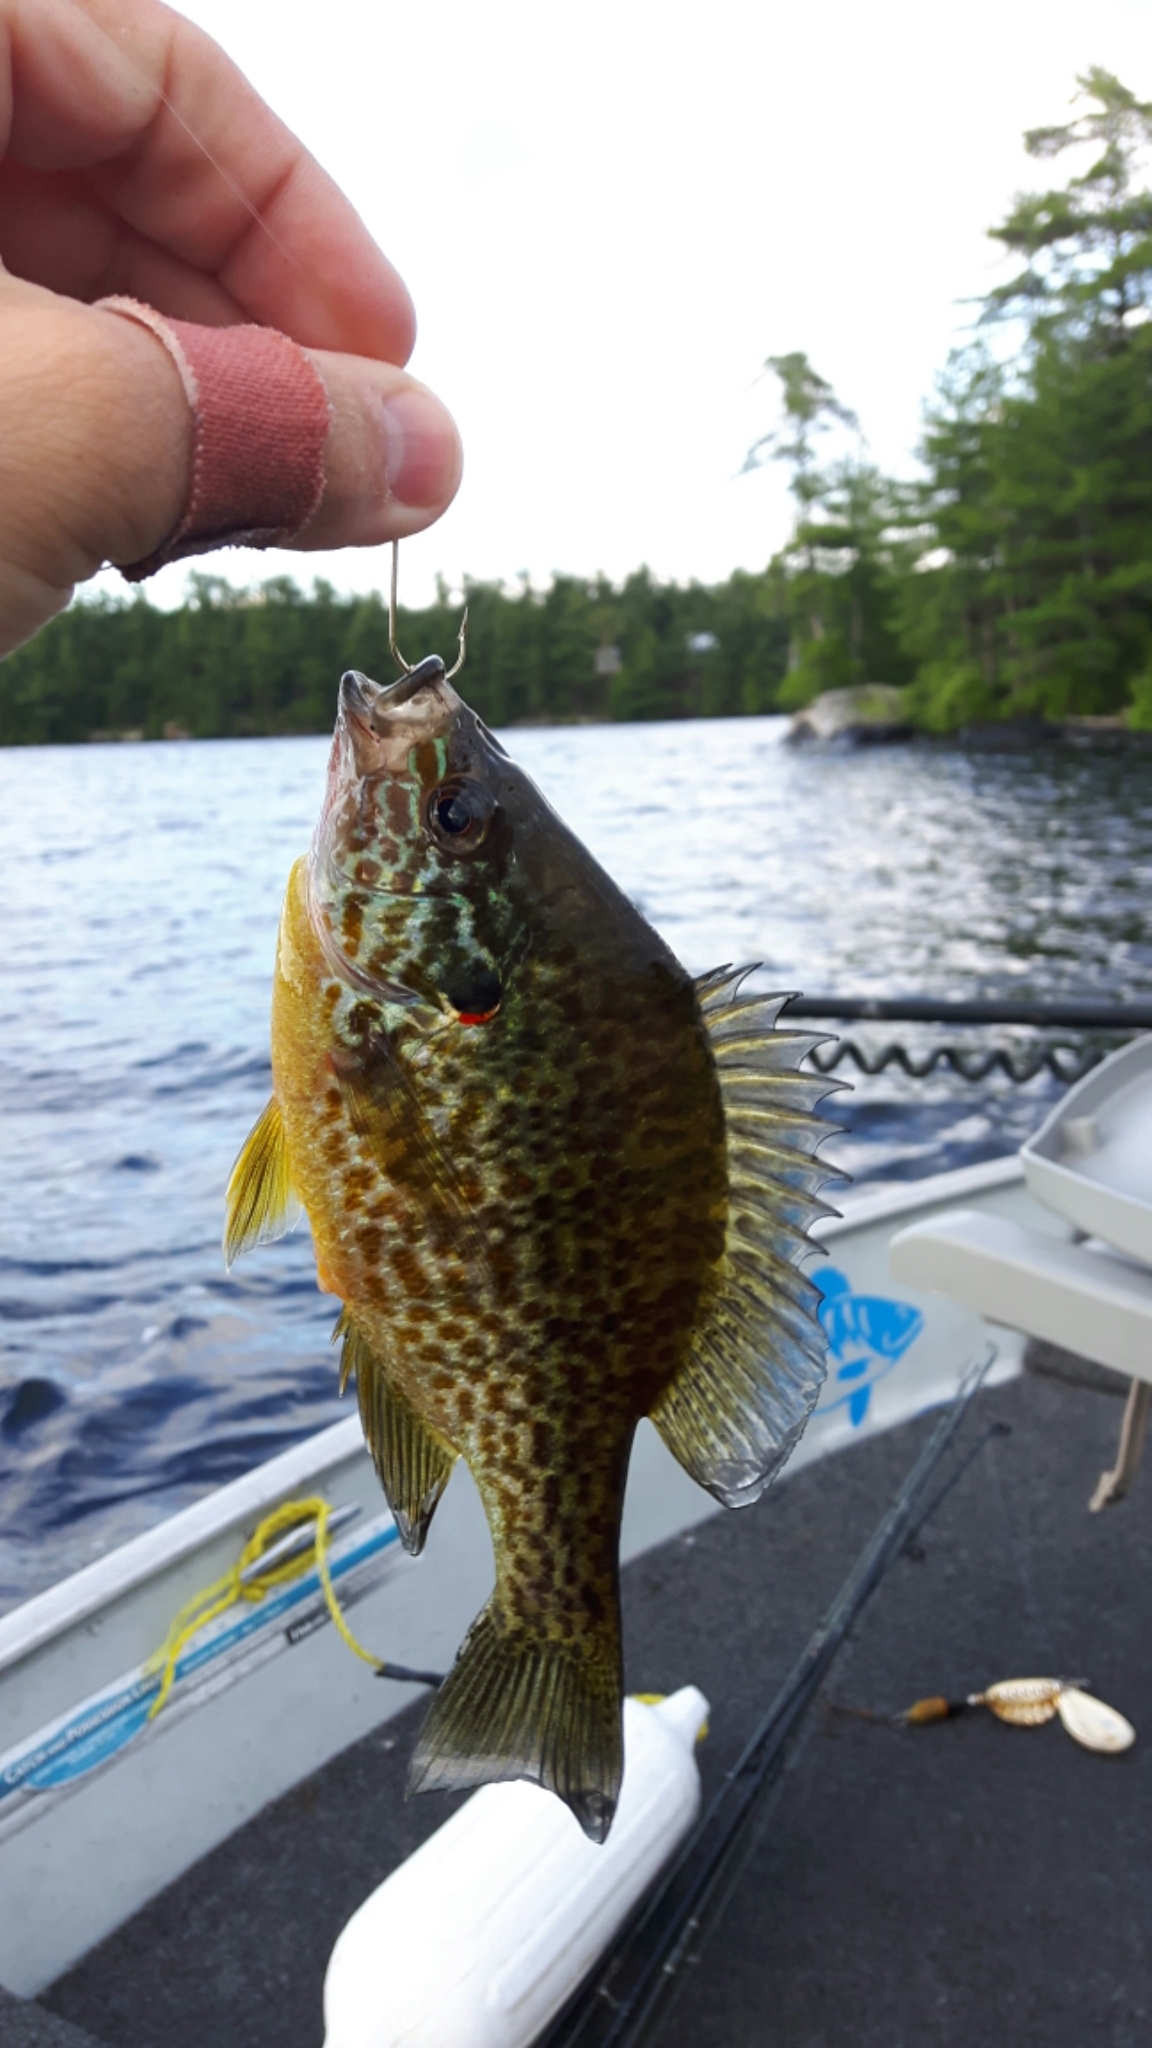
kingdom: Animalia
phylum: Chordata
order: Perciformes
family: Centrarchidae
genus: Lepomis
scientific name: Lepomis gibbosus
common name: Pumpkinseed
